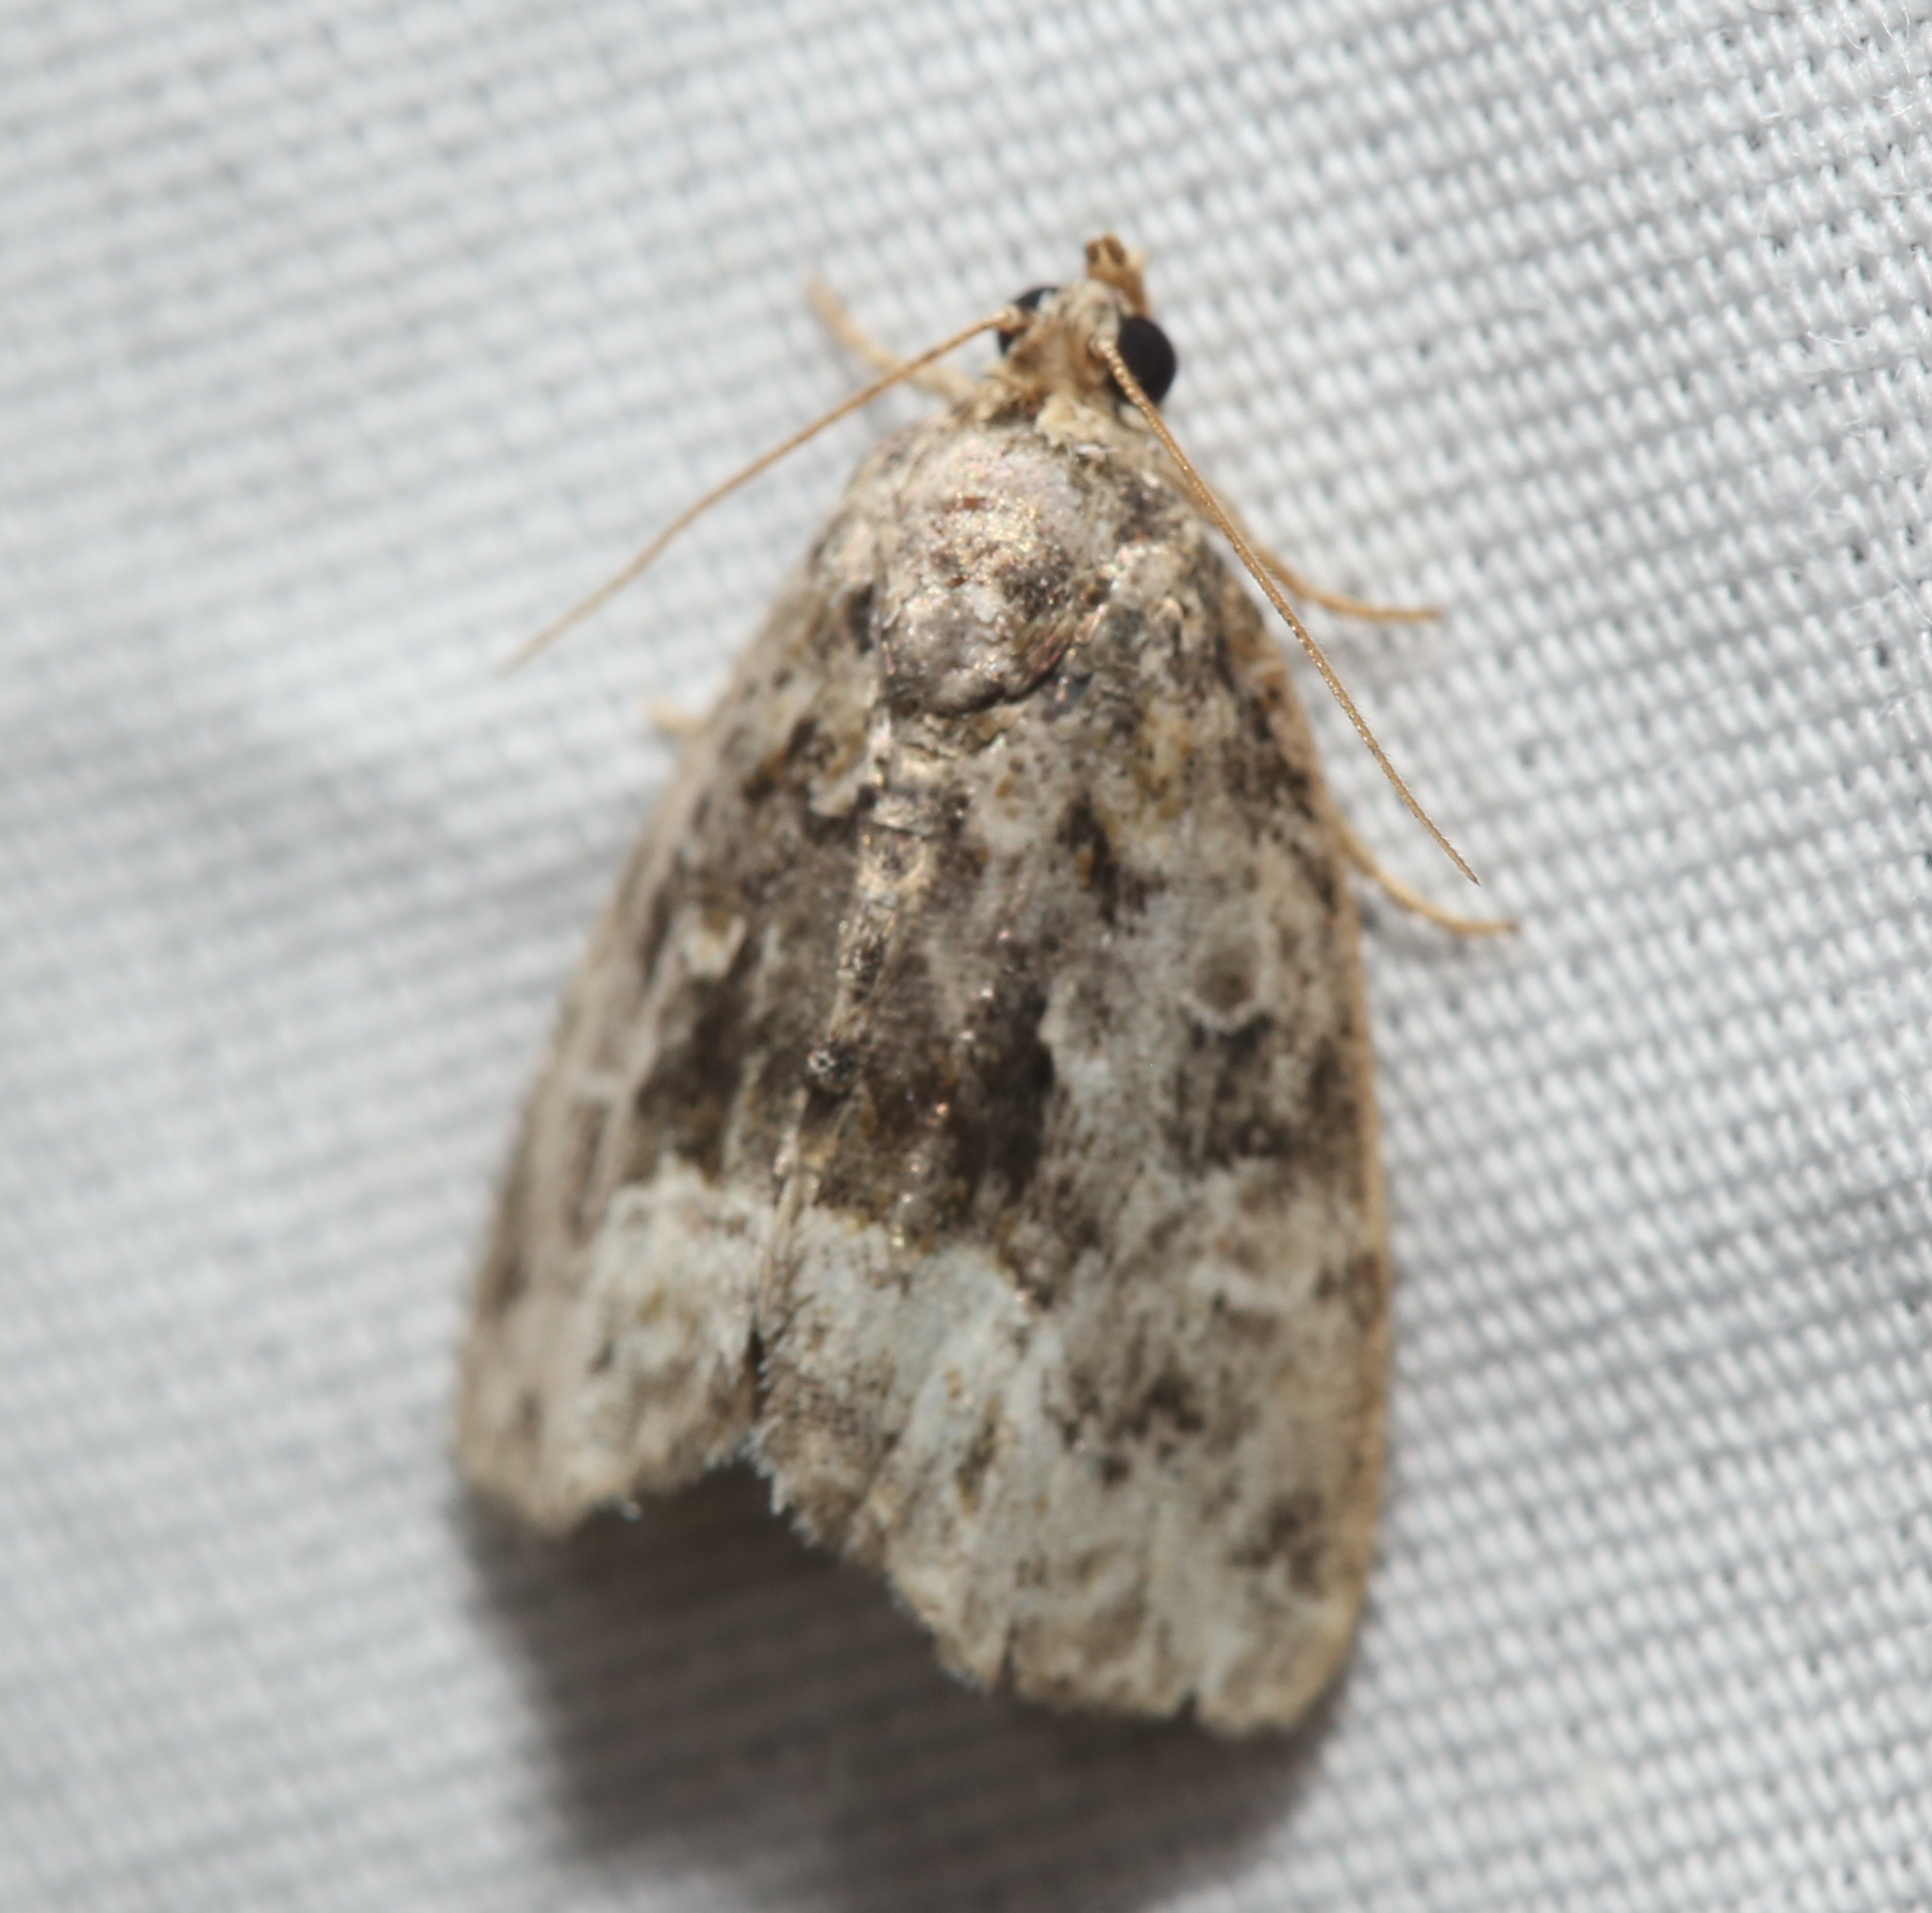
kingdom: Animalia
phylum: Arthropoda
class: Insecta
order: Lepidoptera
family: Noctuidae
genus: Protodeltote
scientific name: Protodeltote muscosula
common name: Large mossy glyph
